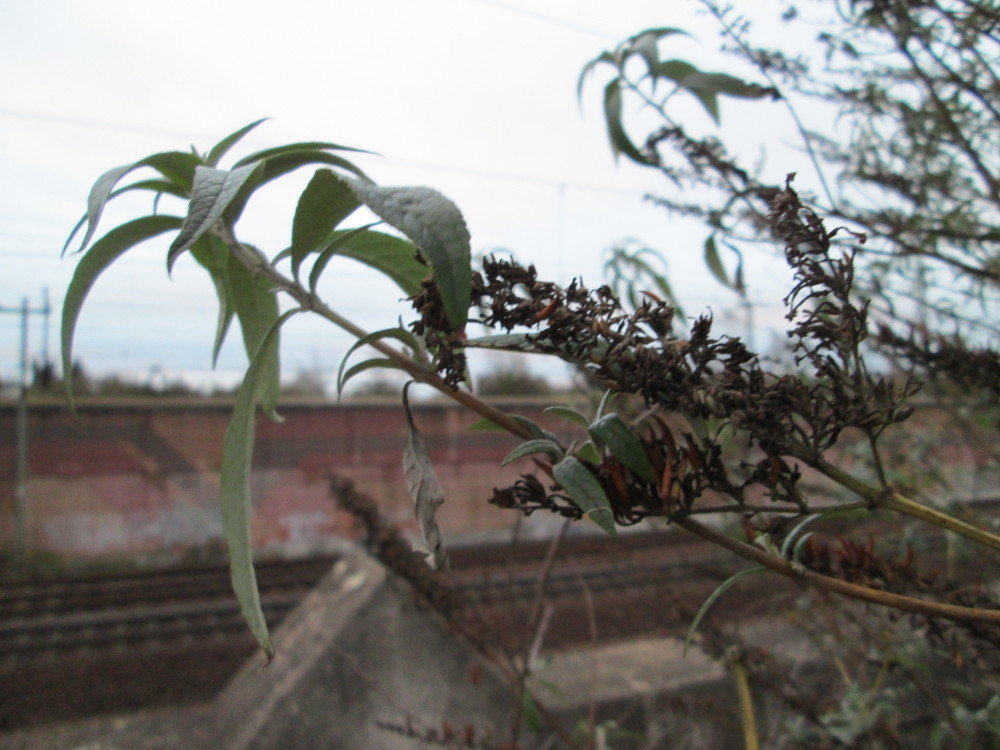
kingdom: Plantae
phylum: Tracheophyta
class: Magnoliopsida
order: Lamiales
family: Scrophulariaceae
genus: Buddleja
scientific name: Buddleja davidii
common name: Butterfly-bush
